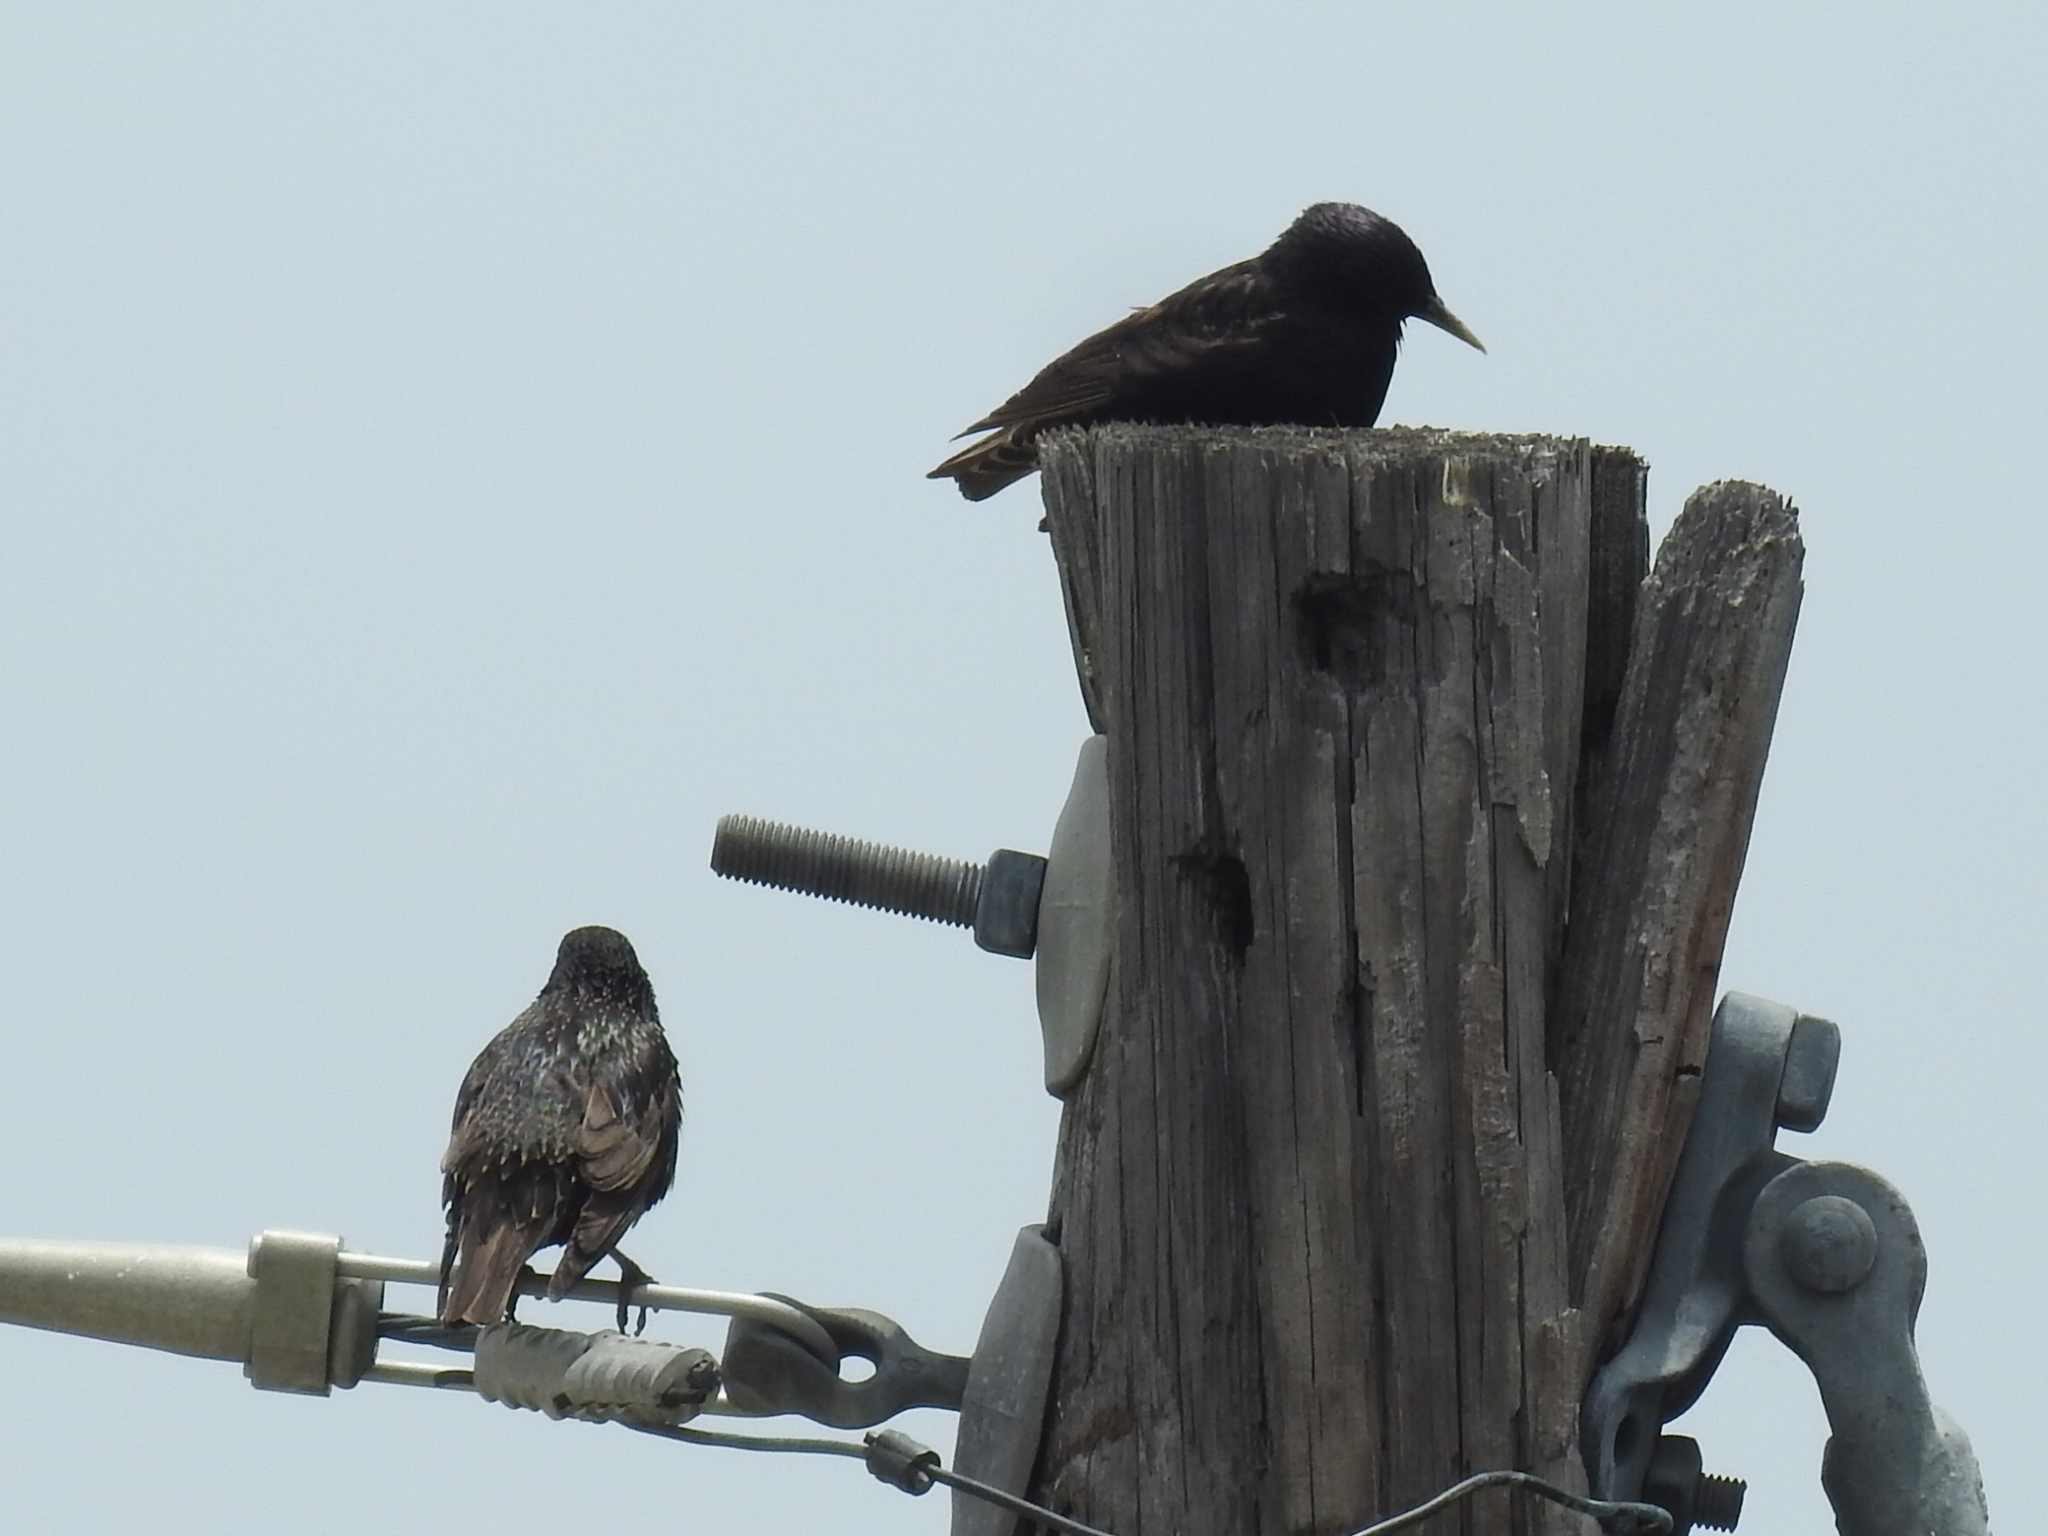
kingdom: Animalia
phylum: Chordata
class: Aves
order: Passeriformes
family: Sturnidae
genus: Sturnus
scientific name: Sturnus vulgaris
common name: Common starling
